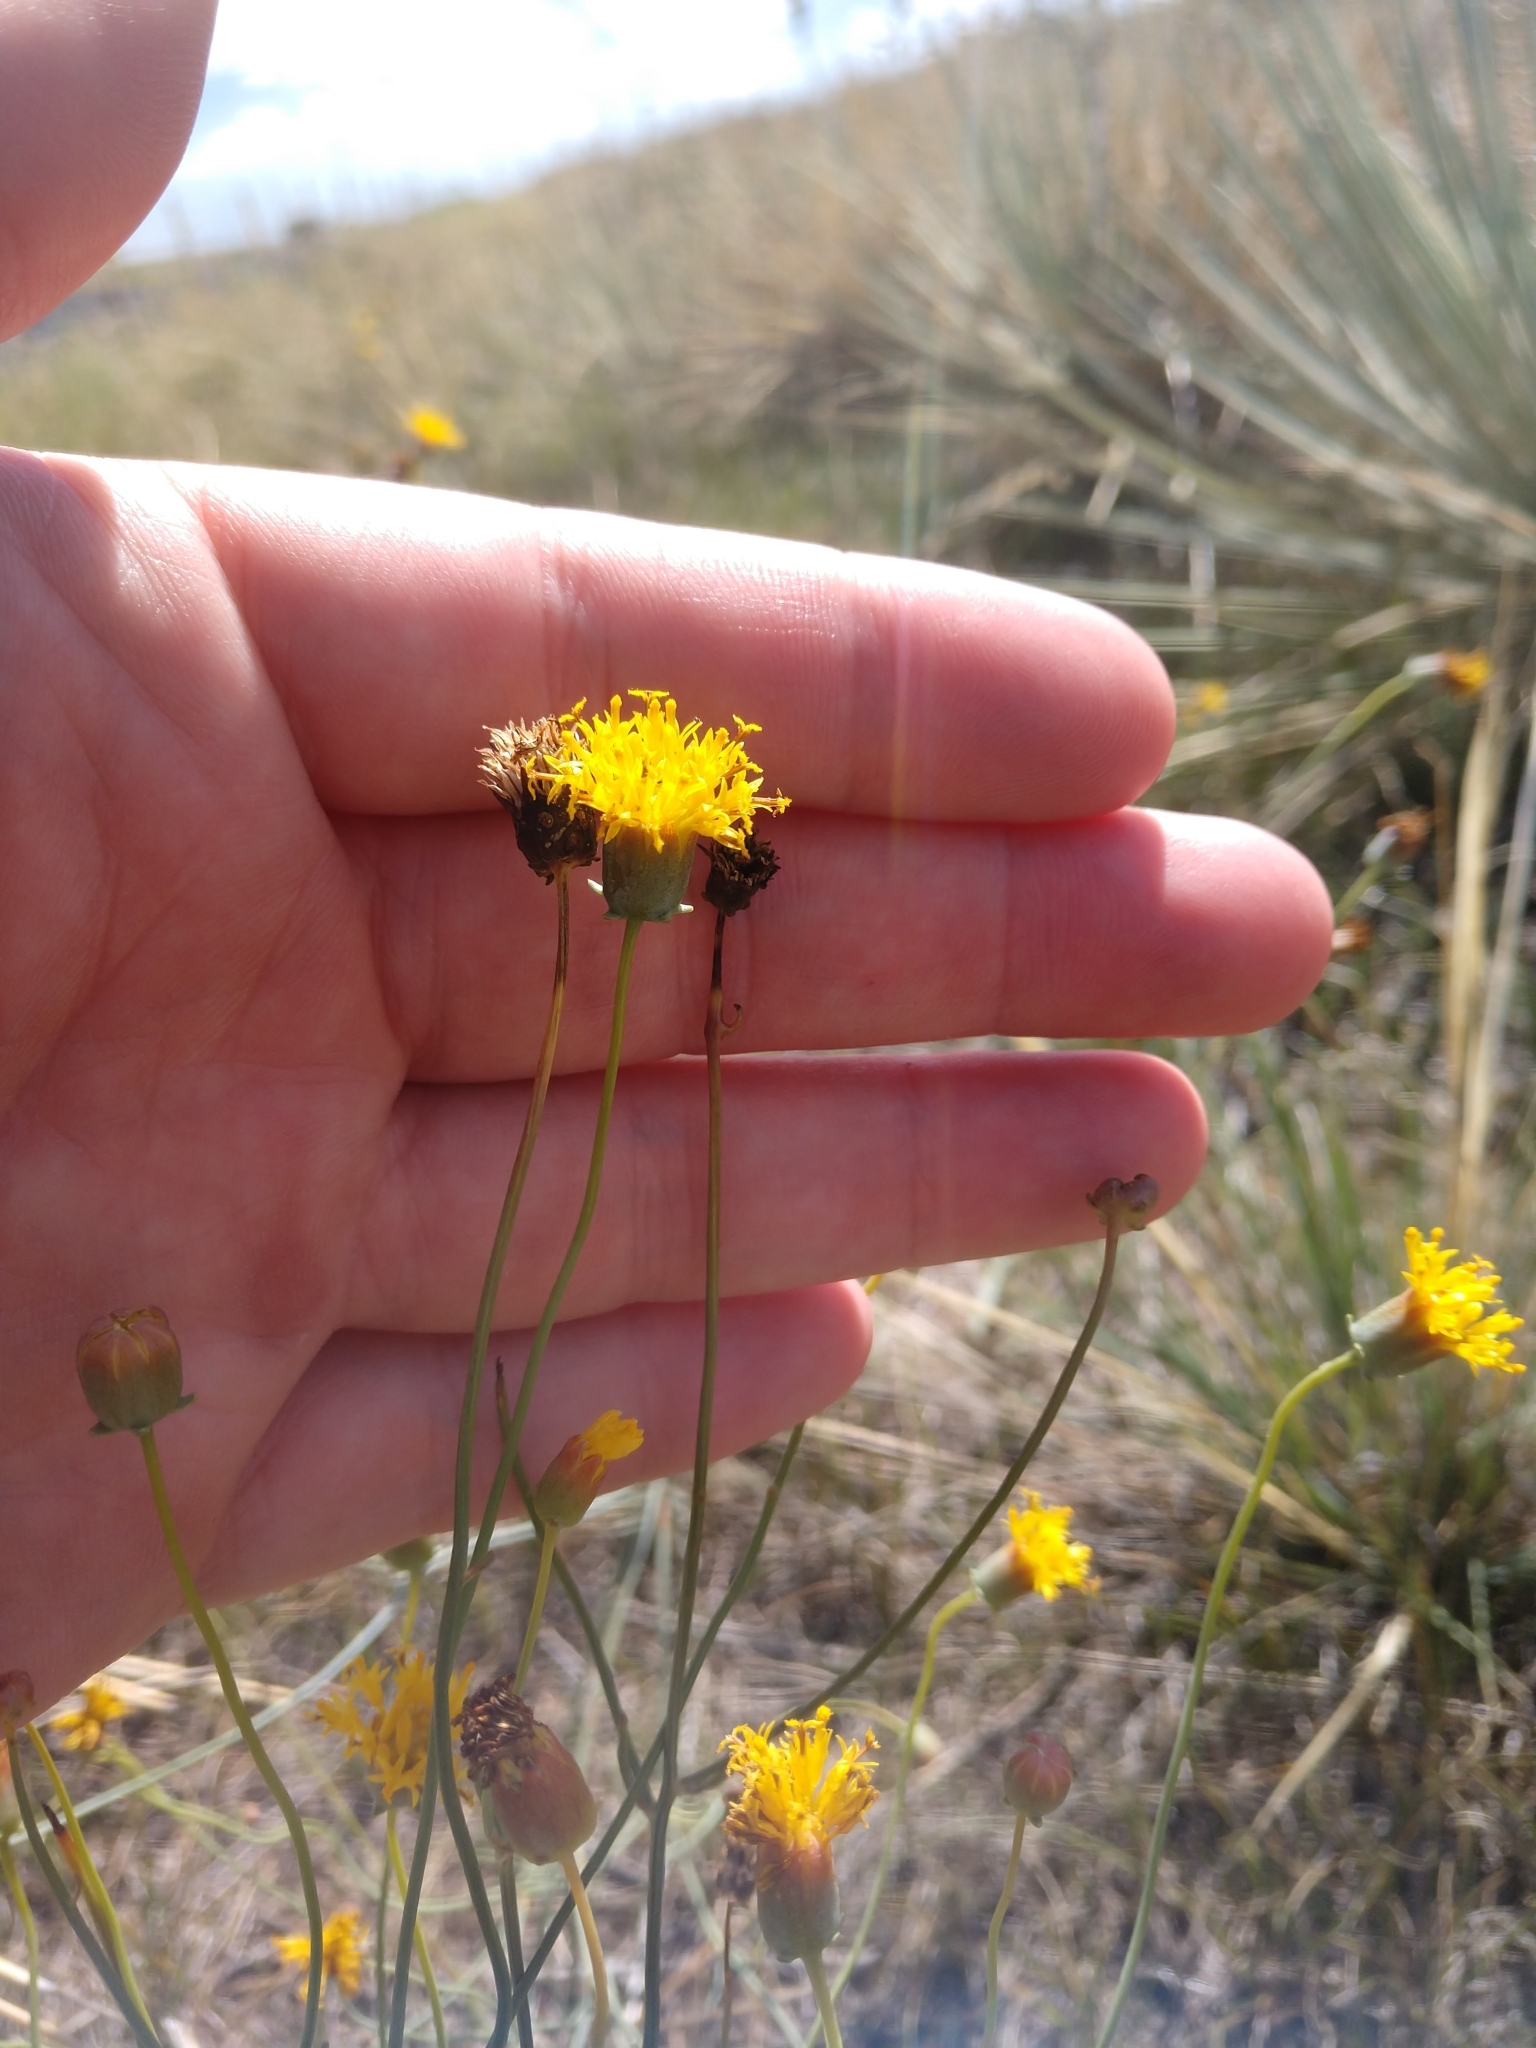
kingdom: Plantae
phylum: Tracheophyta
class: Magnoliopsida
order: Asterales
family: Asteraceae
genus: Thelesperma
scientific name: Thelesperma megapotamicum
